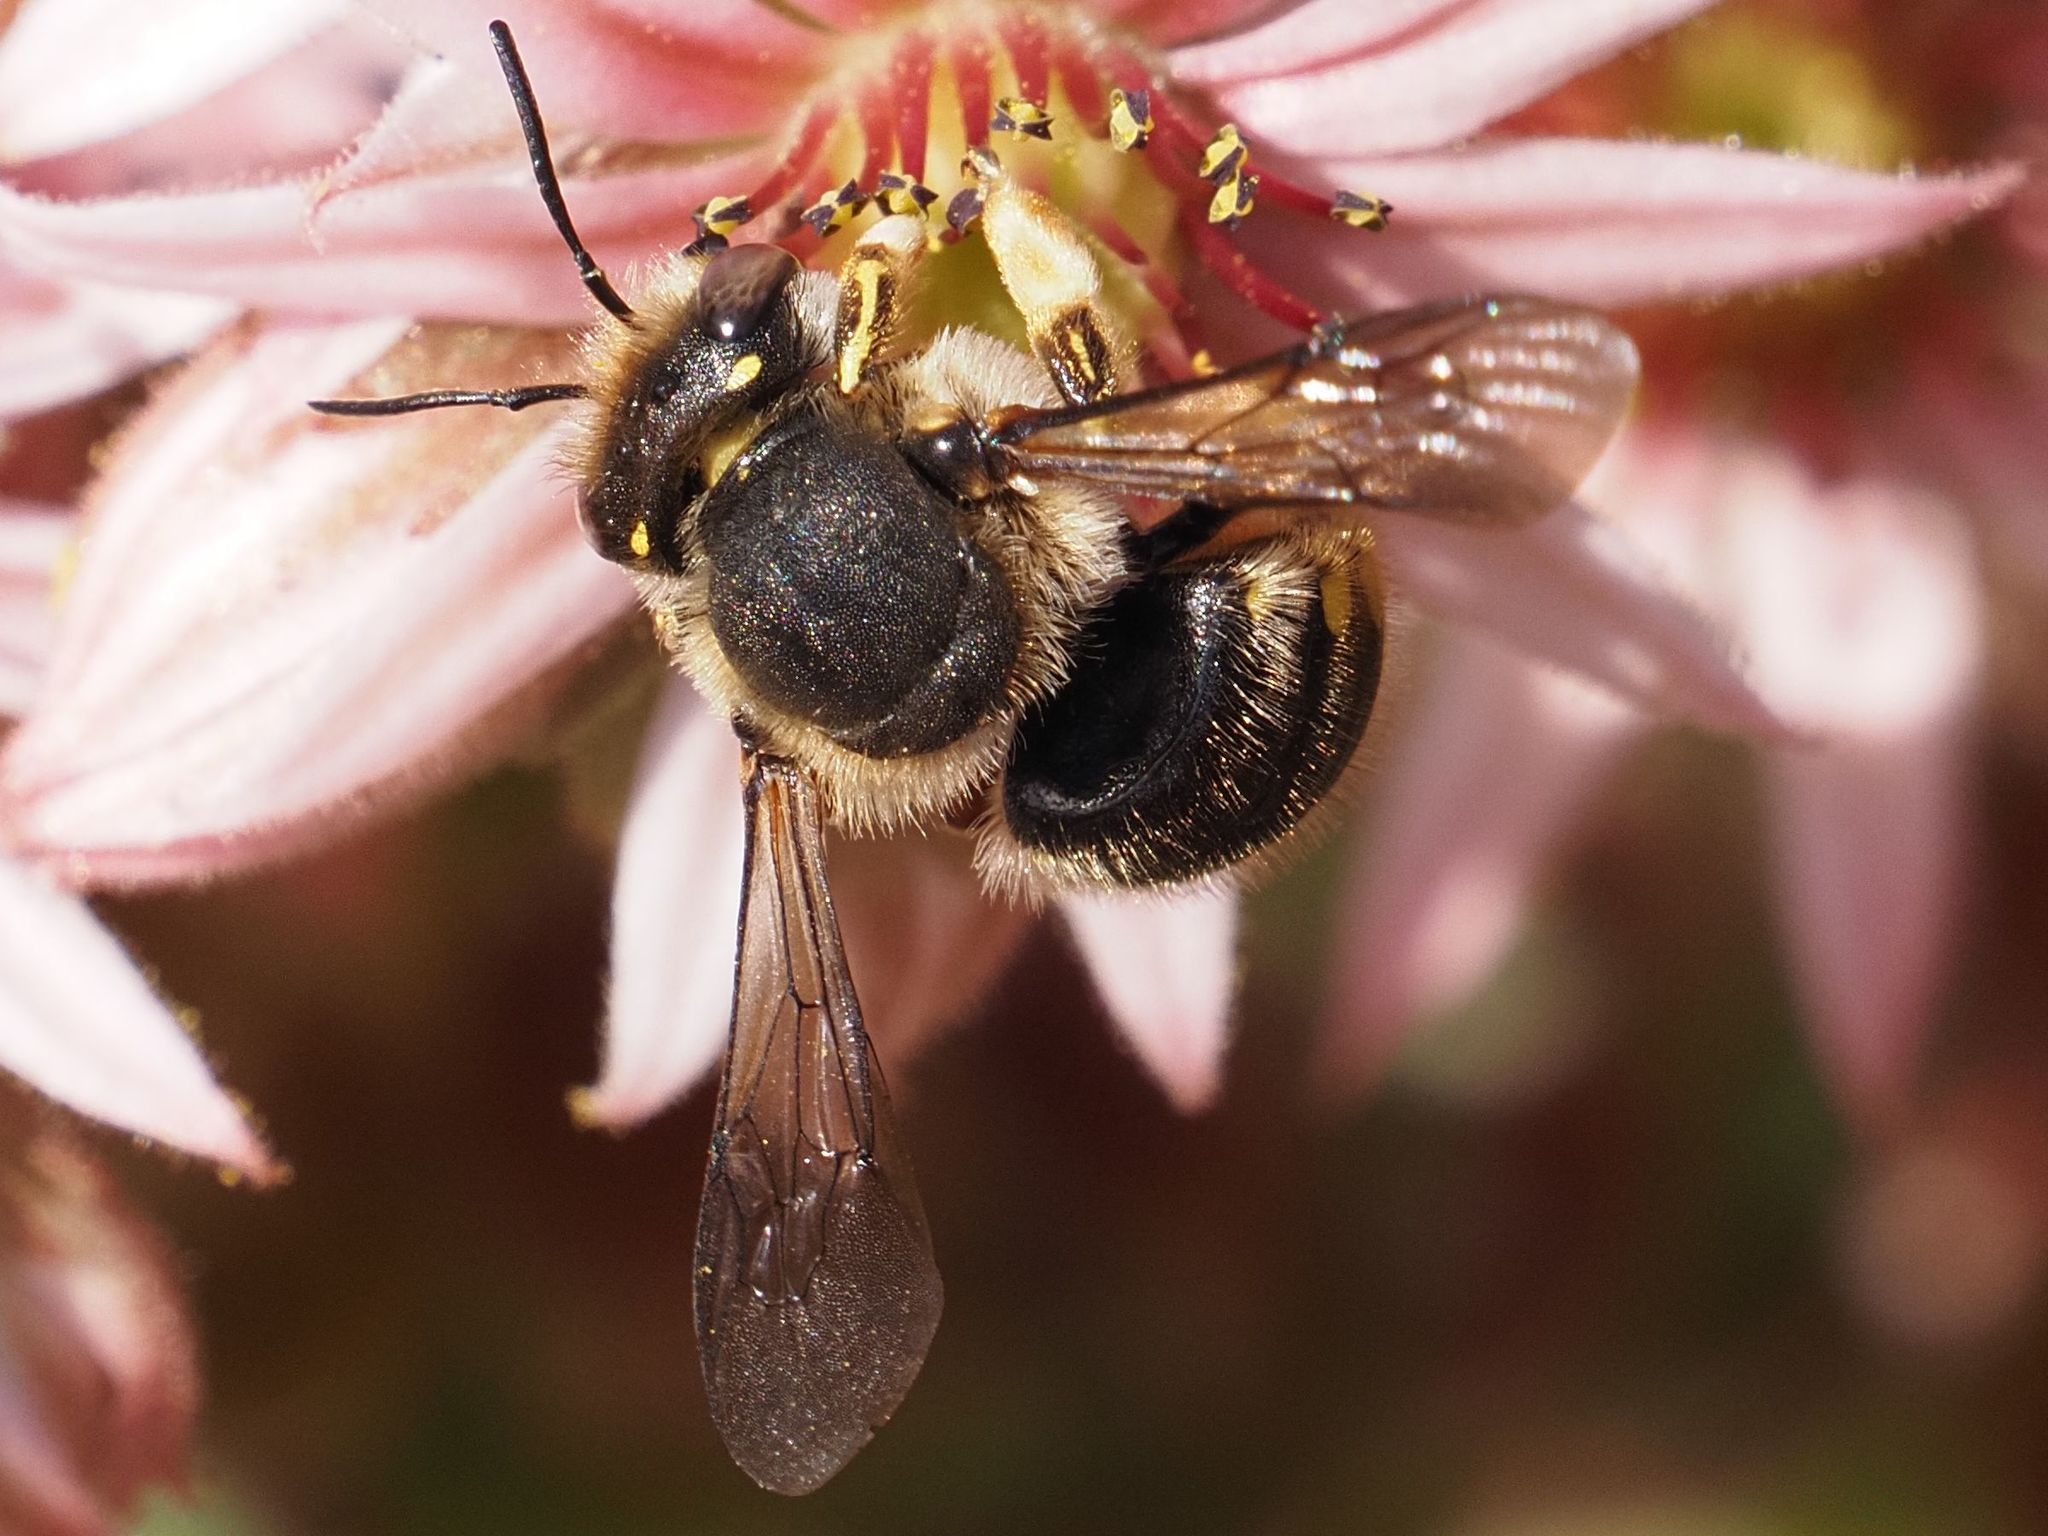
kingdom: Animalia
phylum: Arthropoda
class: Insecta
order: Hymenoptera
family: Megachilidae
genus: Anthidium
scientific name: Anthidium manicatum
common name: Wool carder bee
